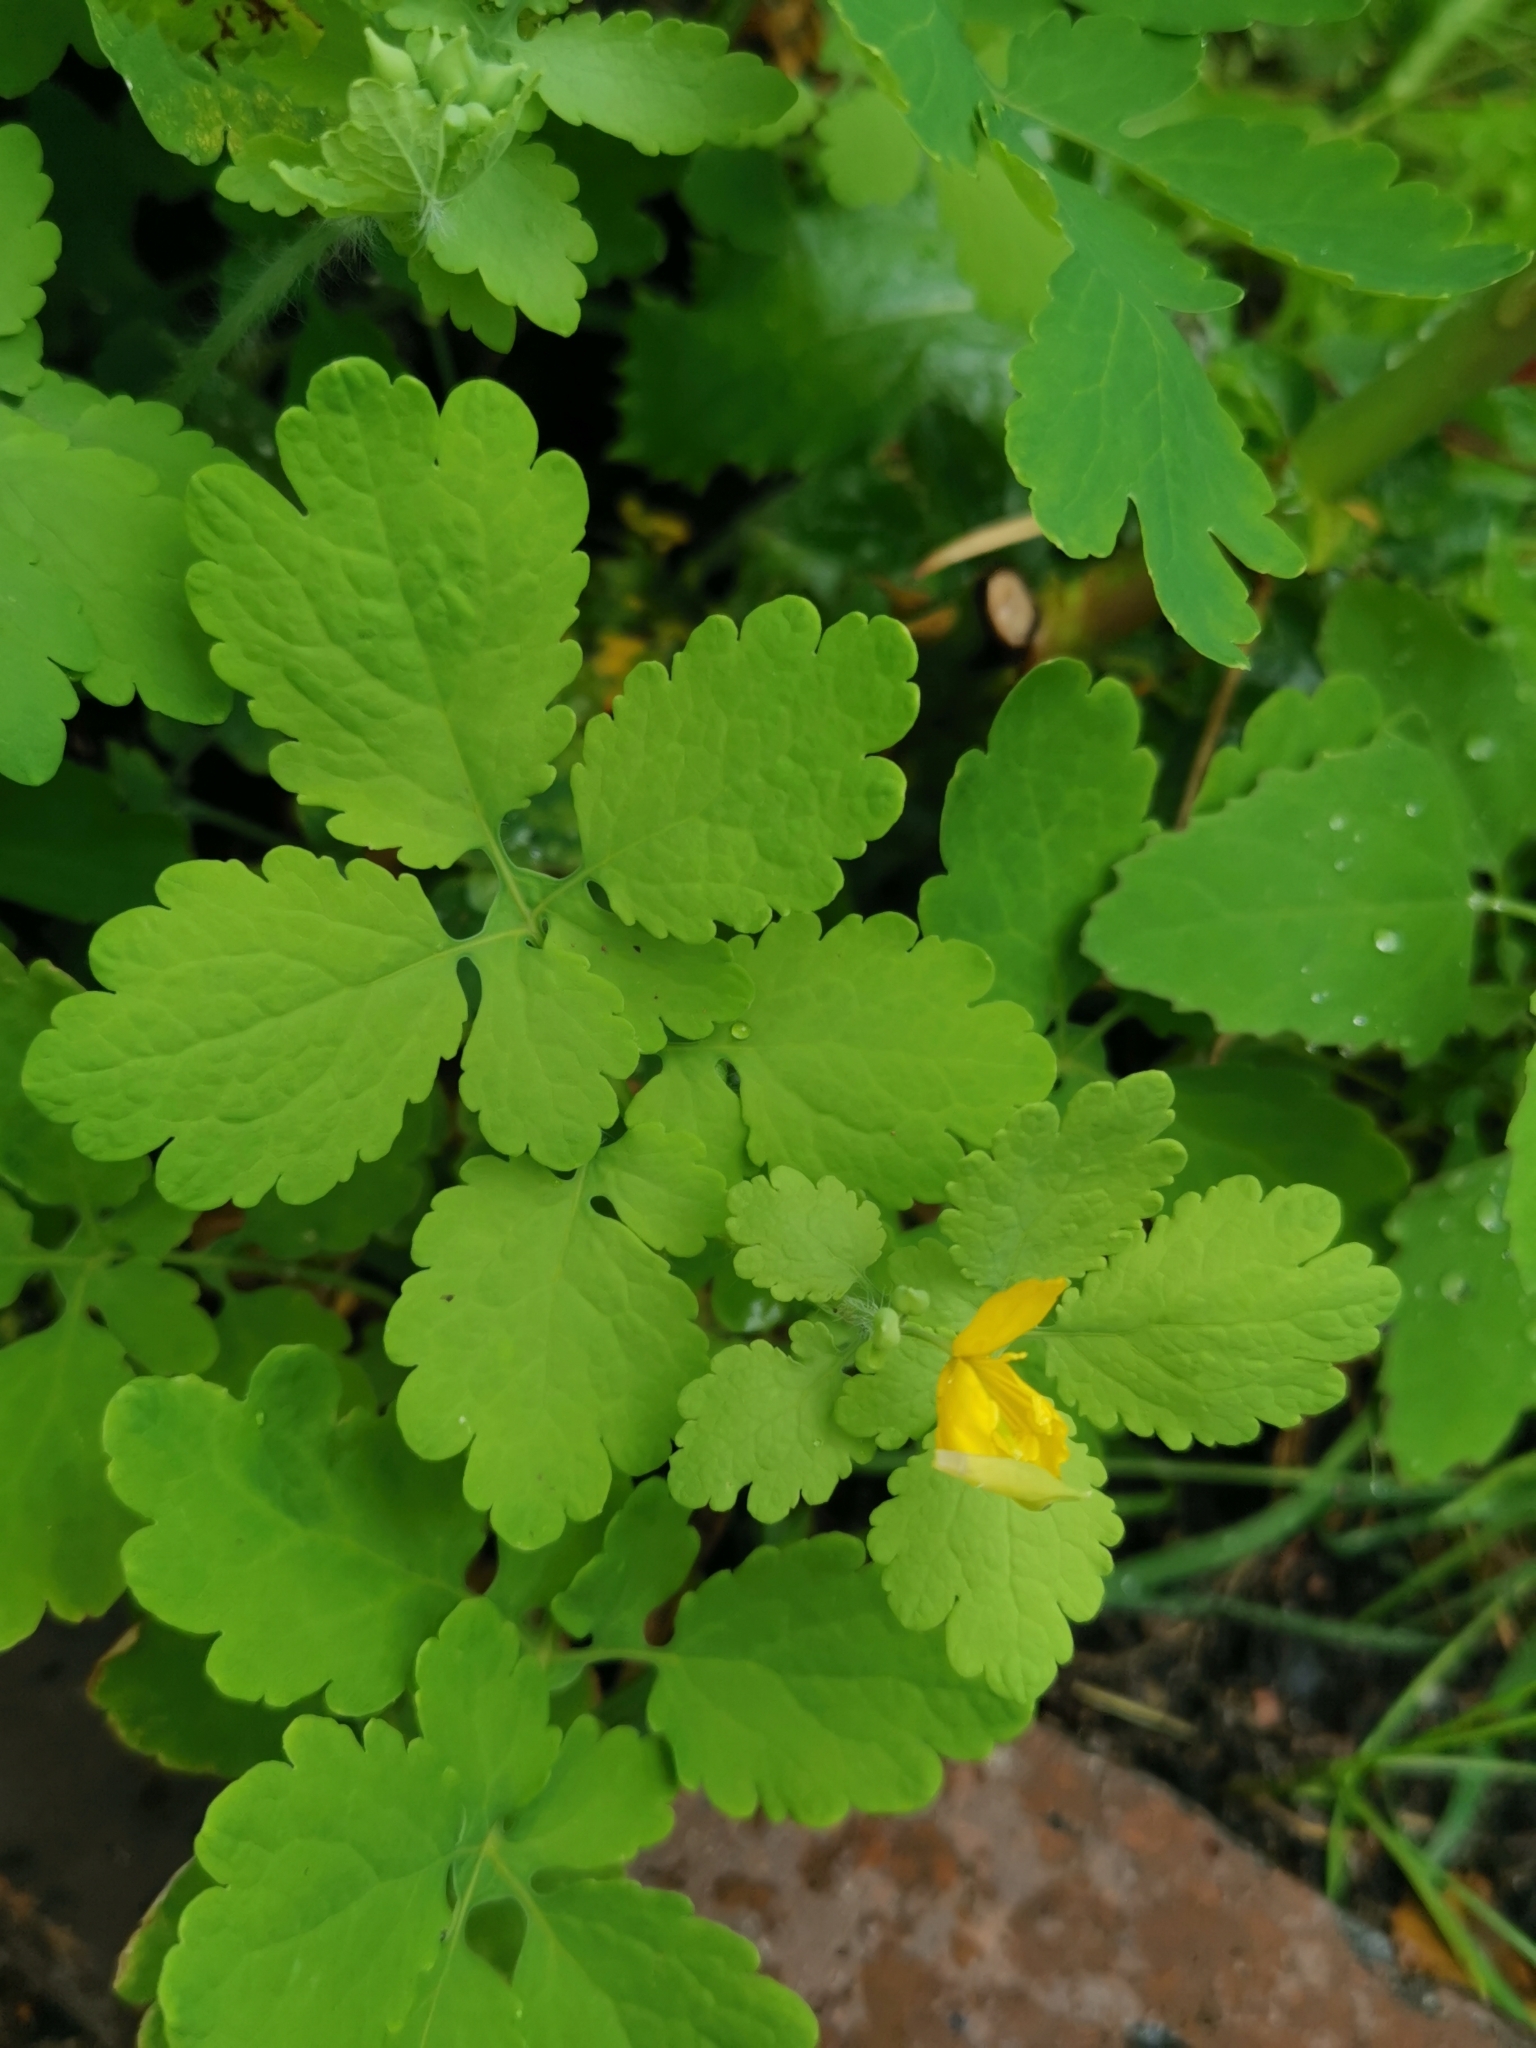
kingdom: Plantae
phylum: Tracheophyta
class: Magnoliopsida
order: Ranunculales
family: Papaveraceae
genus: Chelidonium
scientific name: Chelidonium majus
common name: Greater celandine
